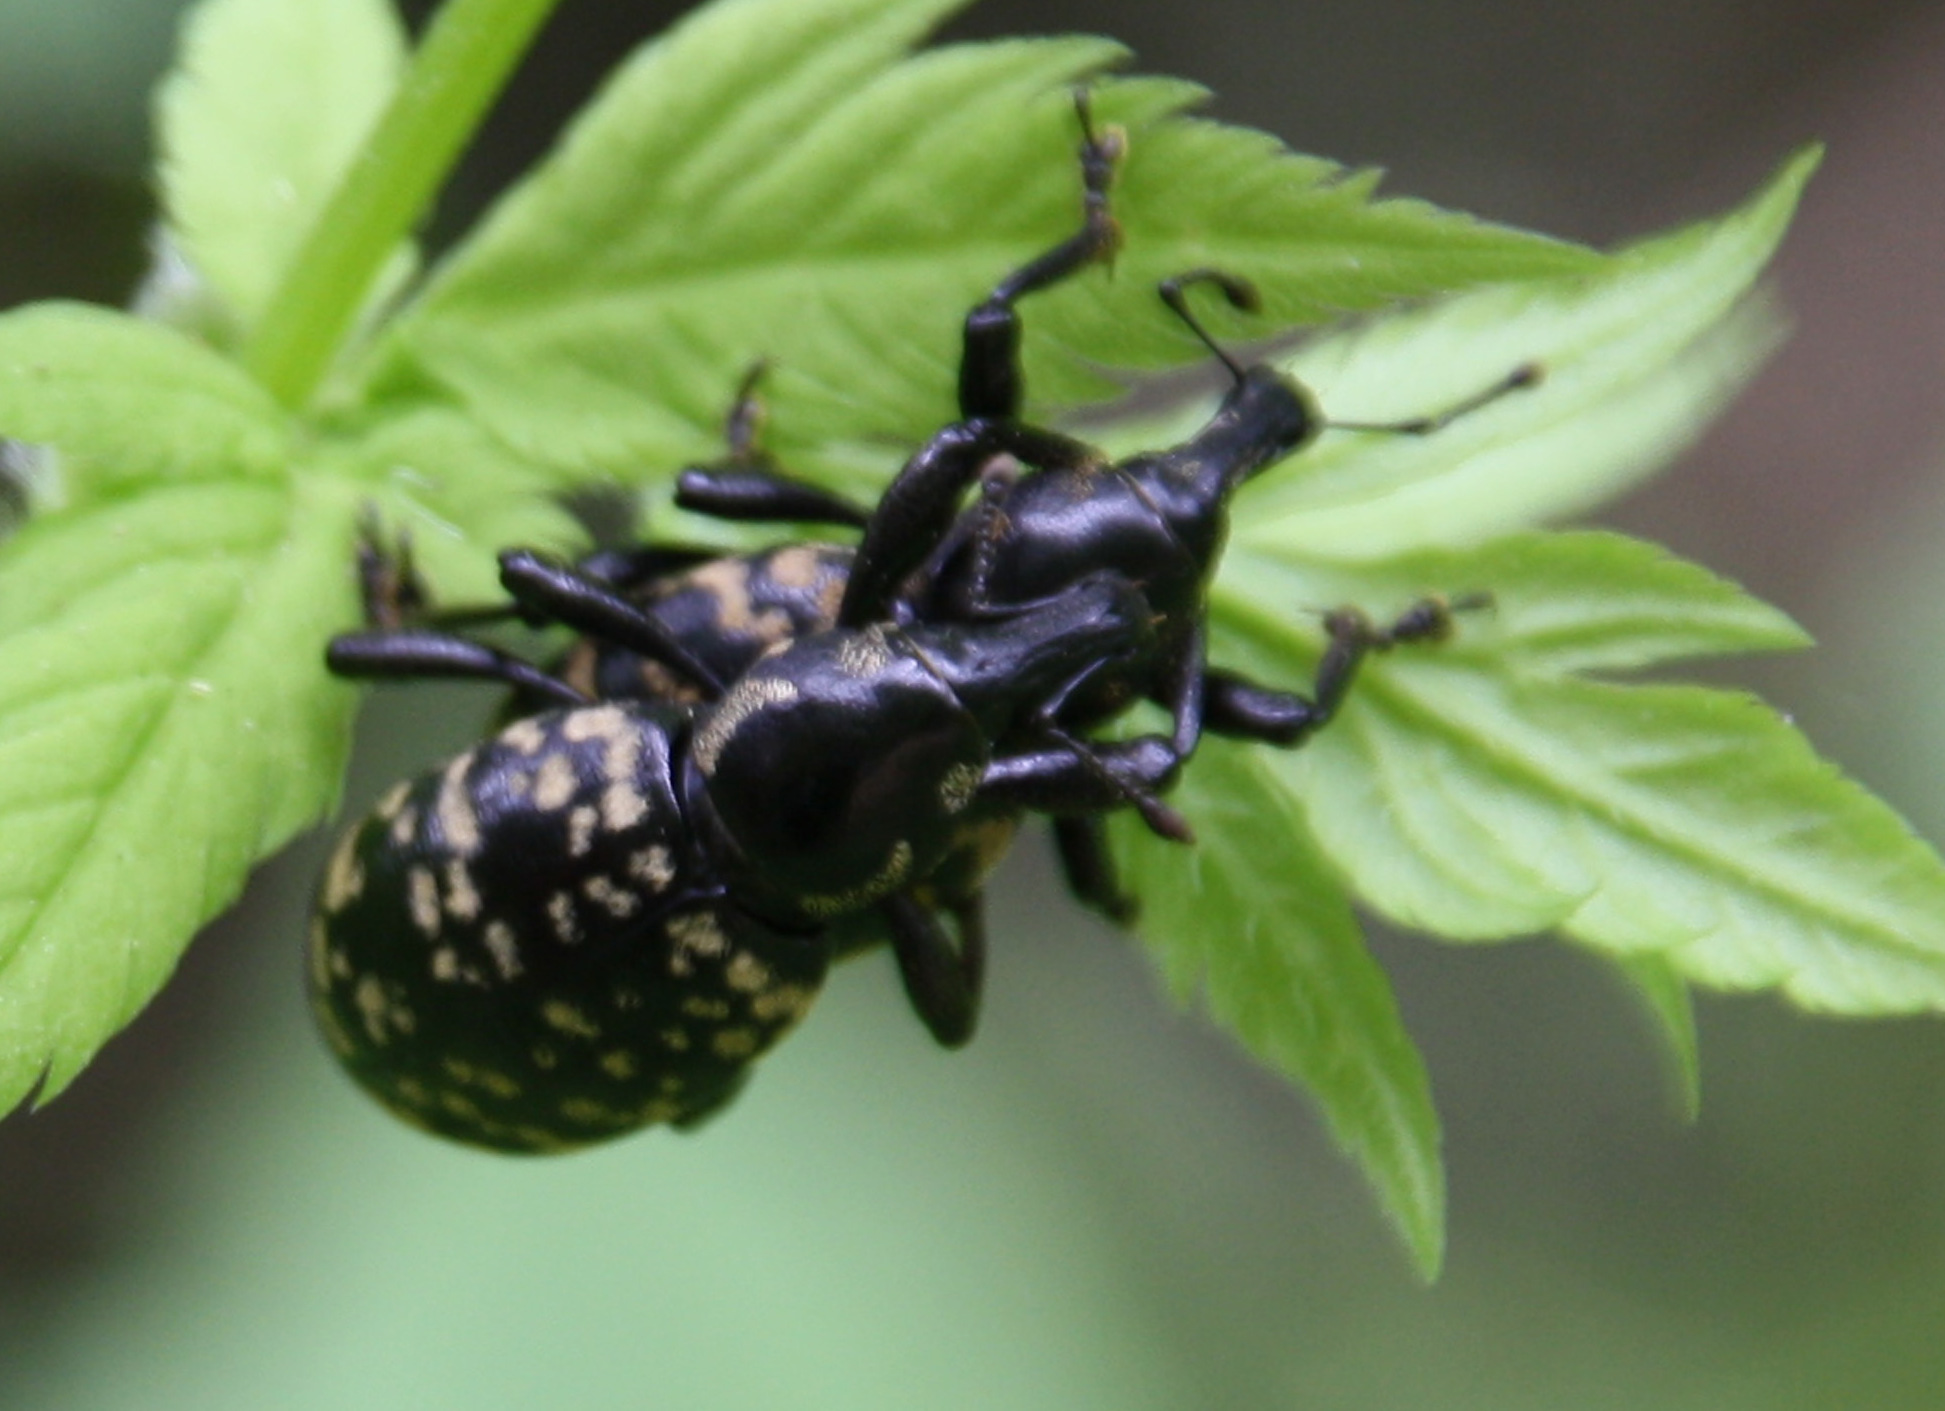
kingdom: Animalia
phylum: Arthropoda
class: Insecta
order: Coleoptera
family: Curculionidae
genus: Liparus
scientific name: Liparus glabrirostris
